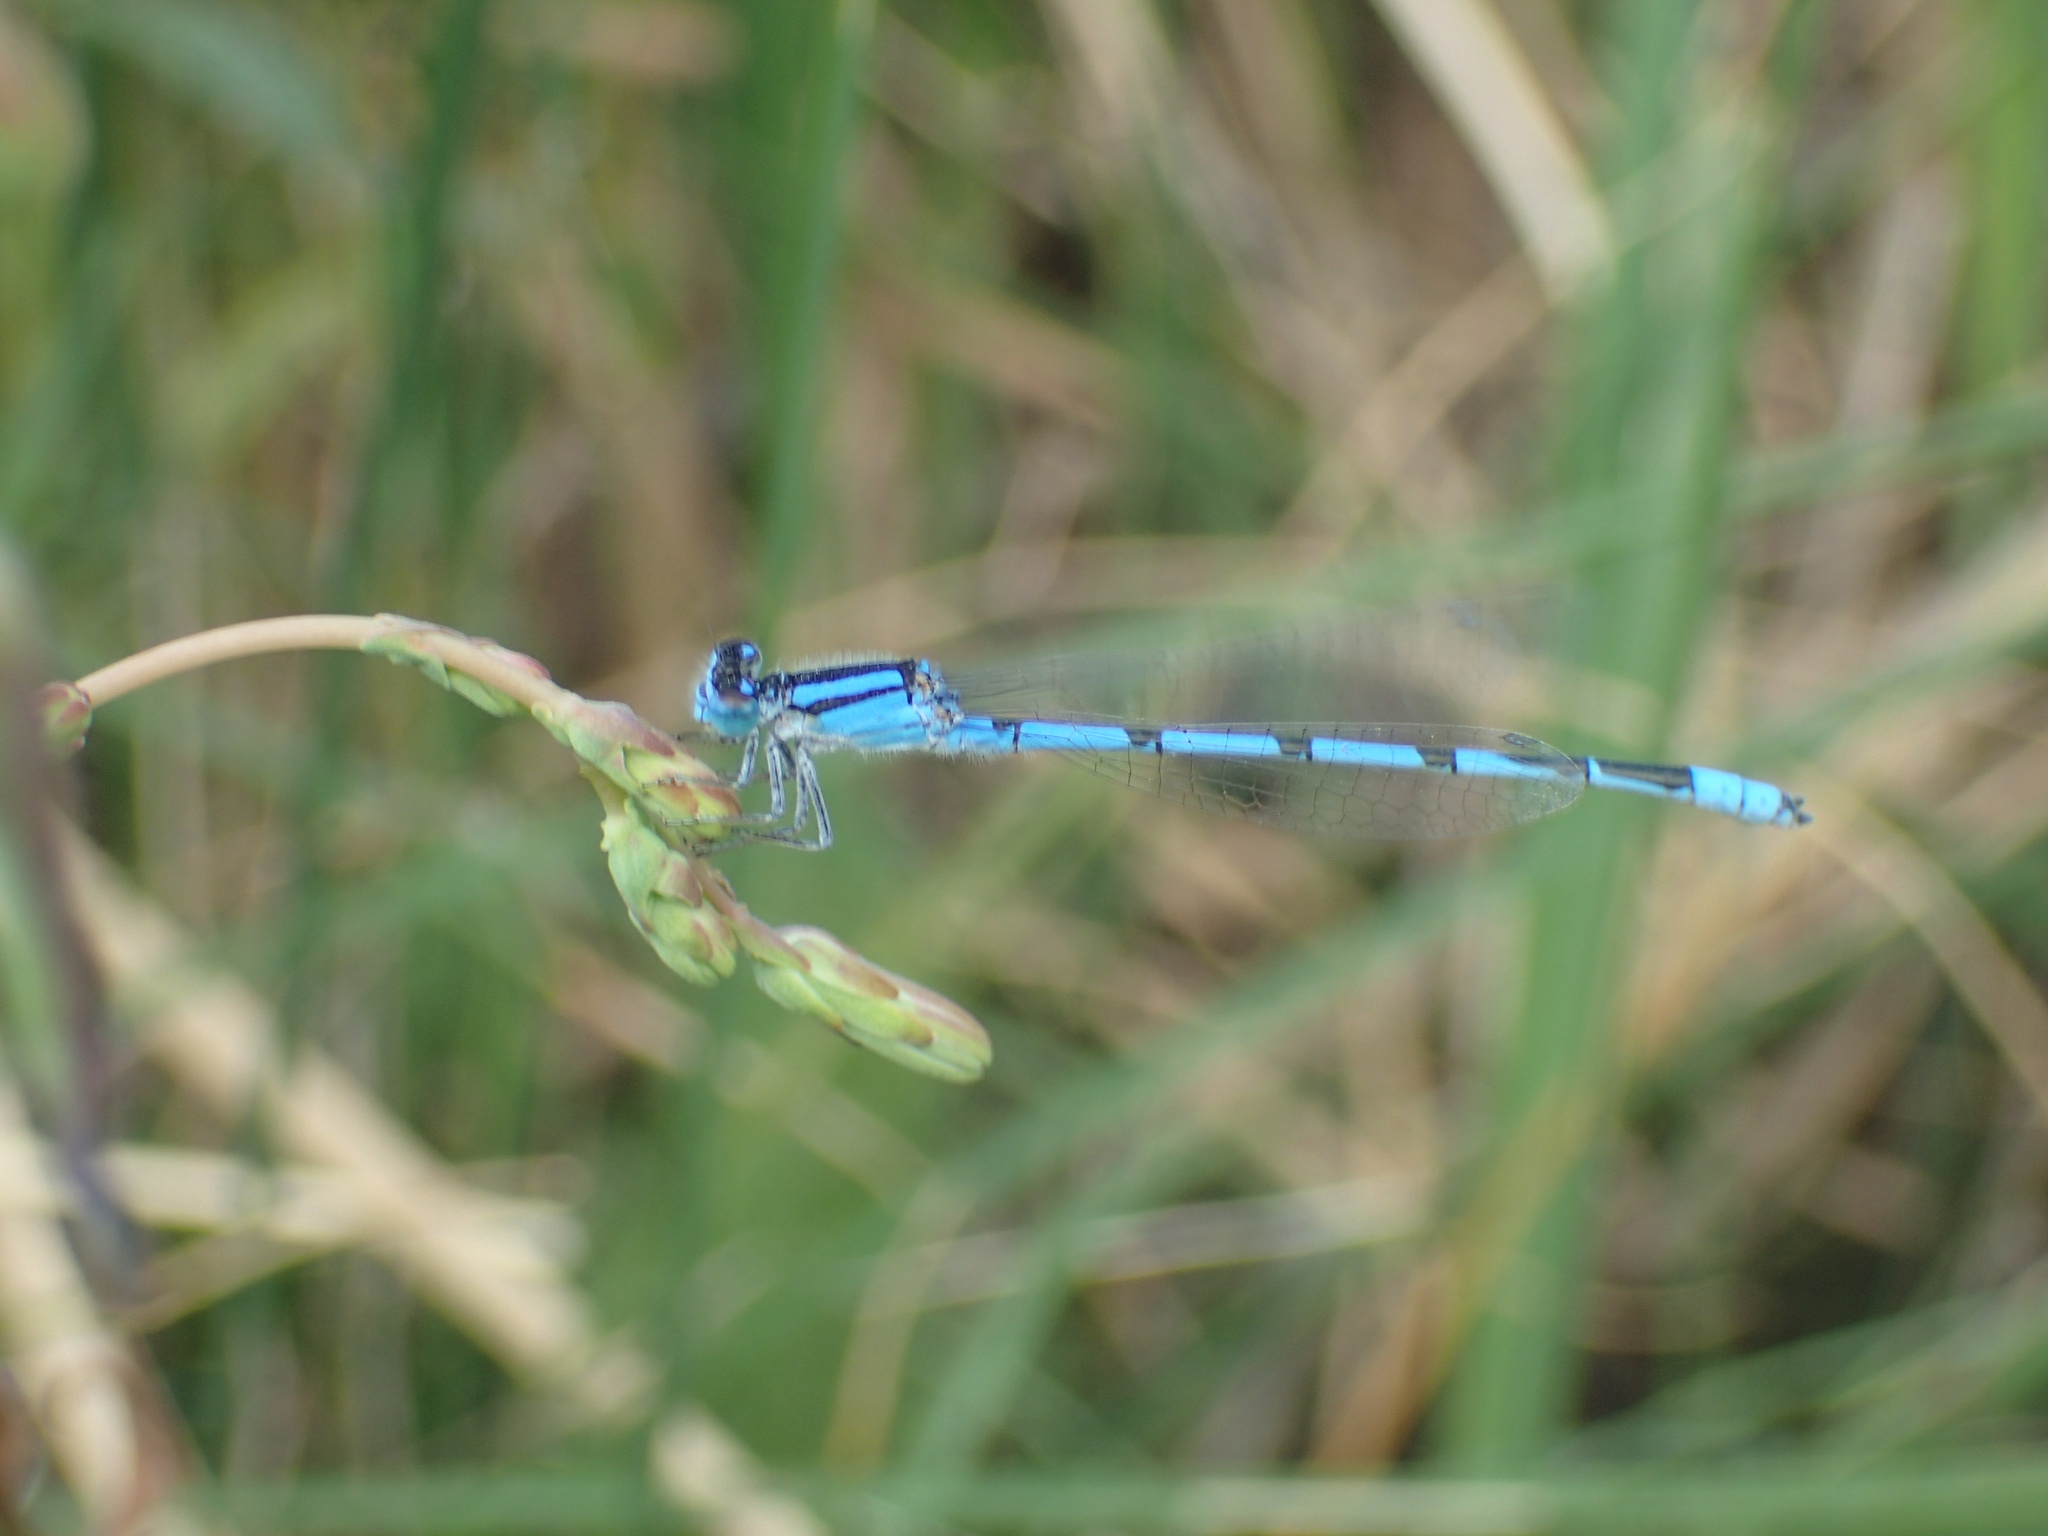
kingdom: Animalia
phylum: Arthropoda
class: Insecta
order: Odonata
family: Coenagrionidae
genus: Enallagma
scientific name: Enallagma civile
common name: Damselfly
